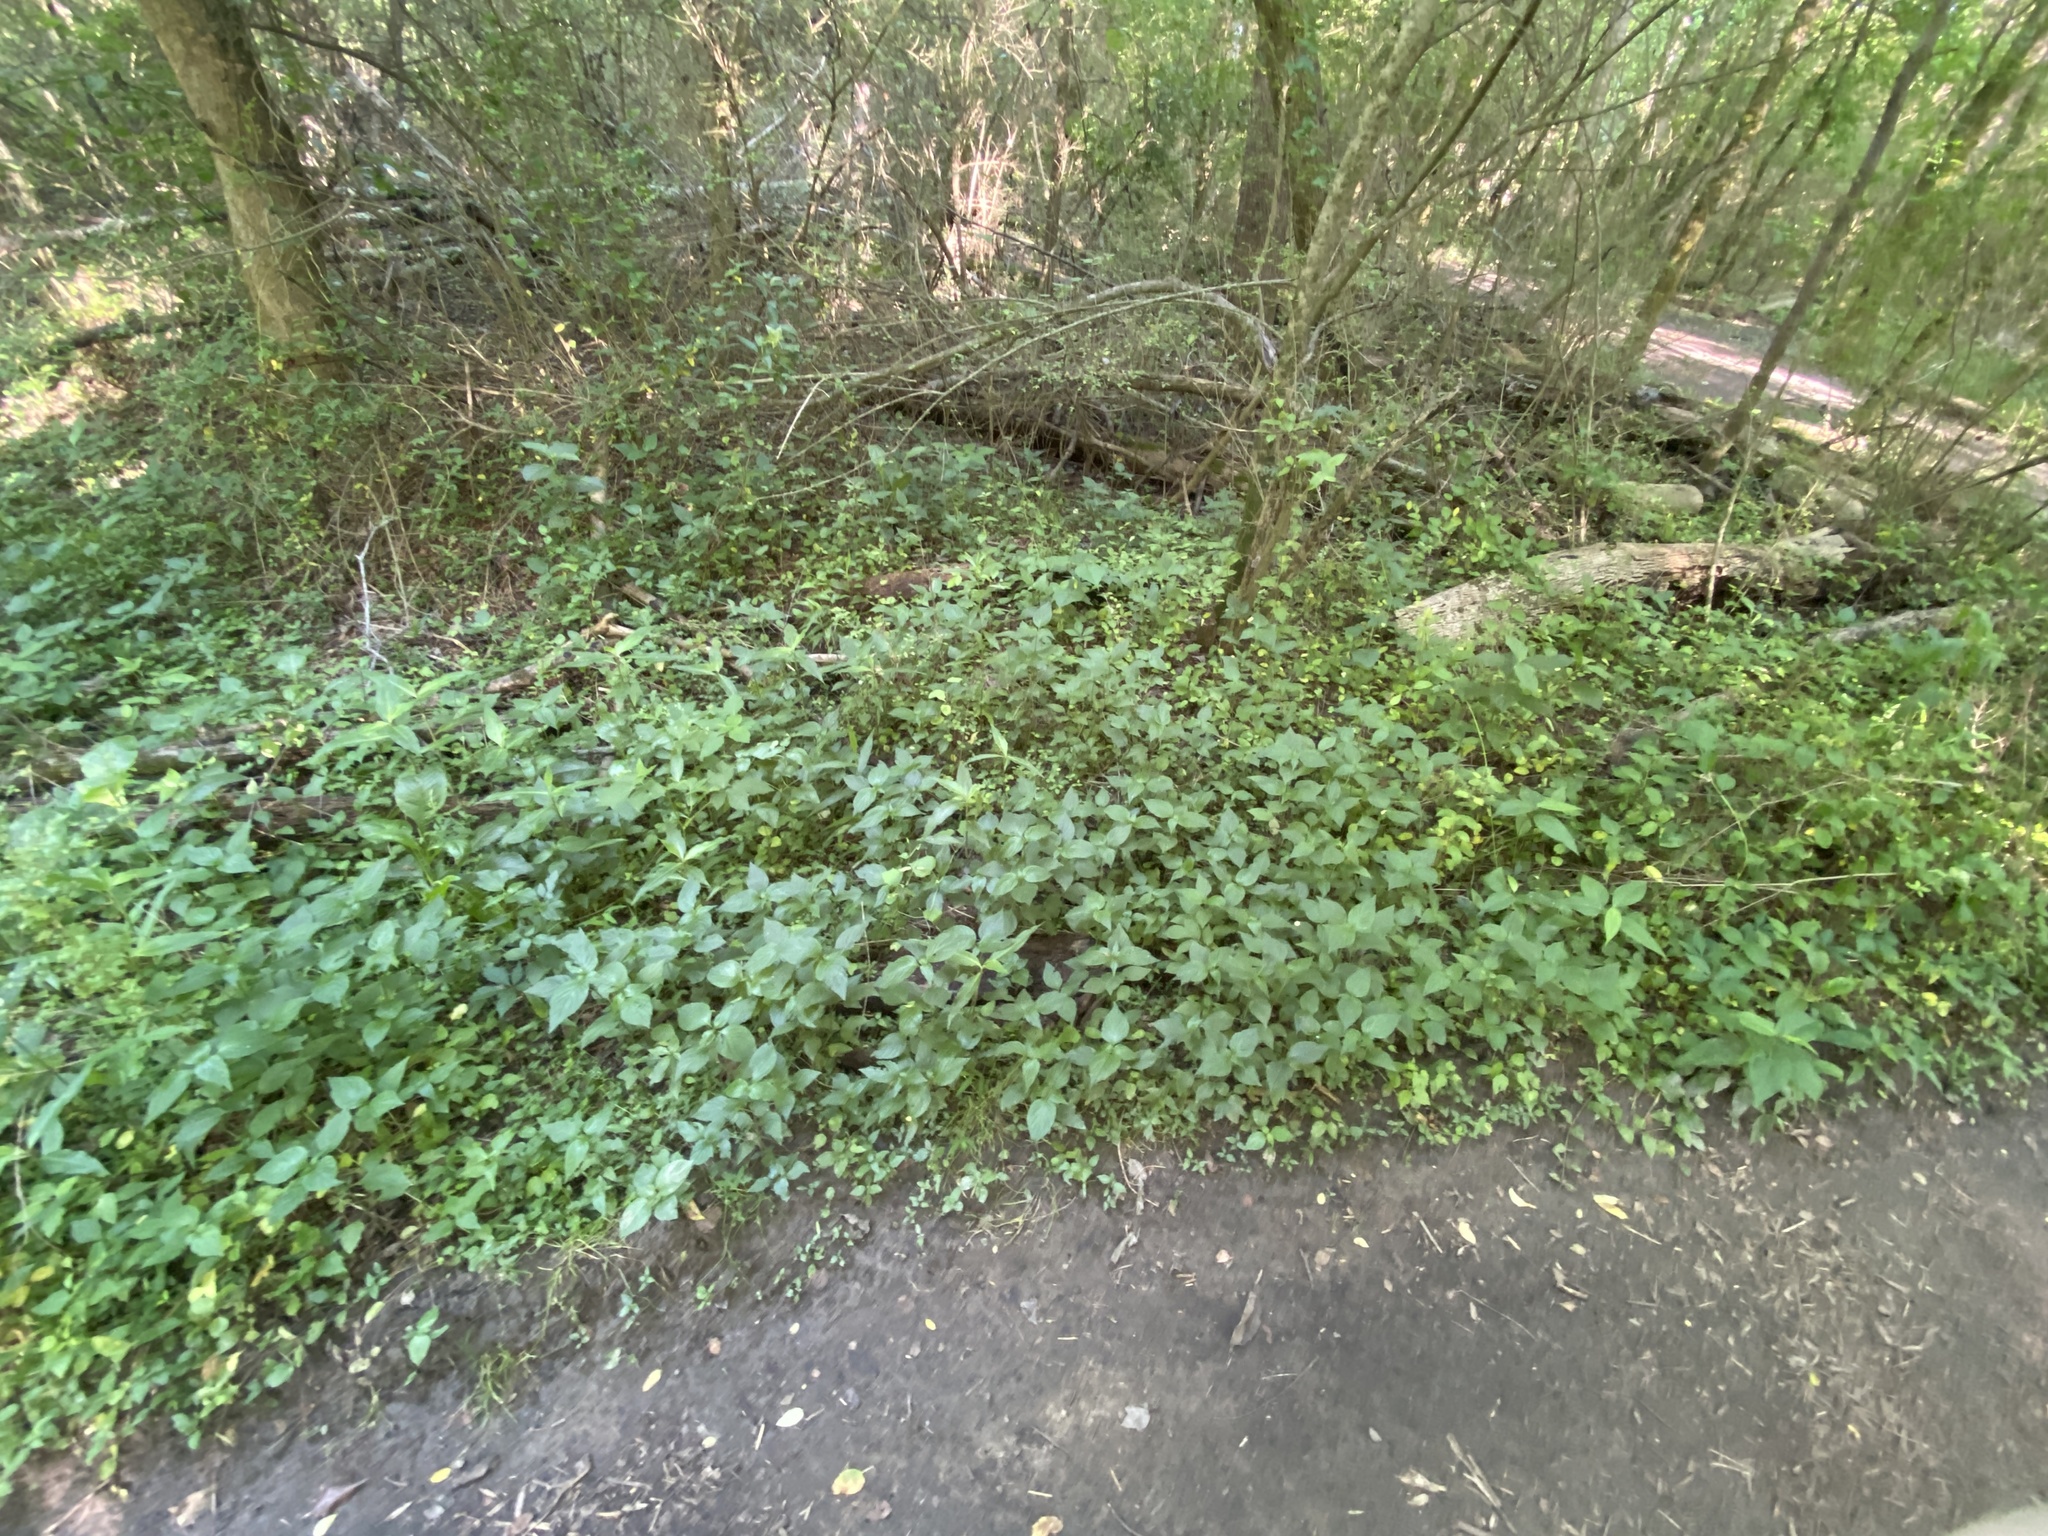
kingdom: Plantae
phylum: Tracheophyta
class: Magnoliopsida
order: Caryophyllales
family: Amaranthaceae
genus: Achyranthes
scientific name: Achyranthes bidentata
